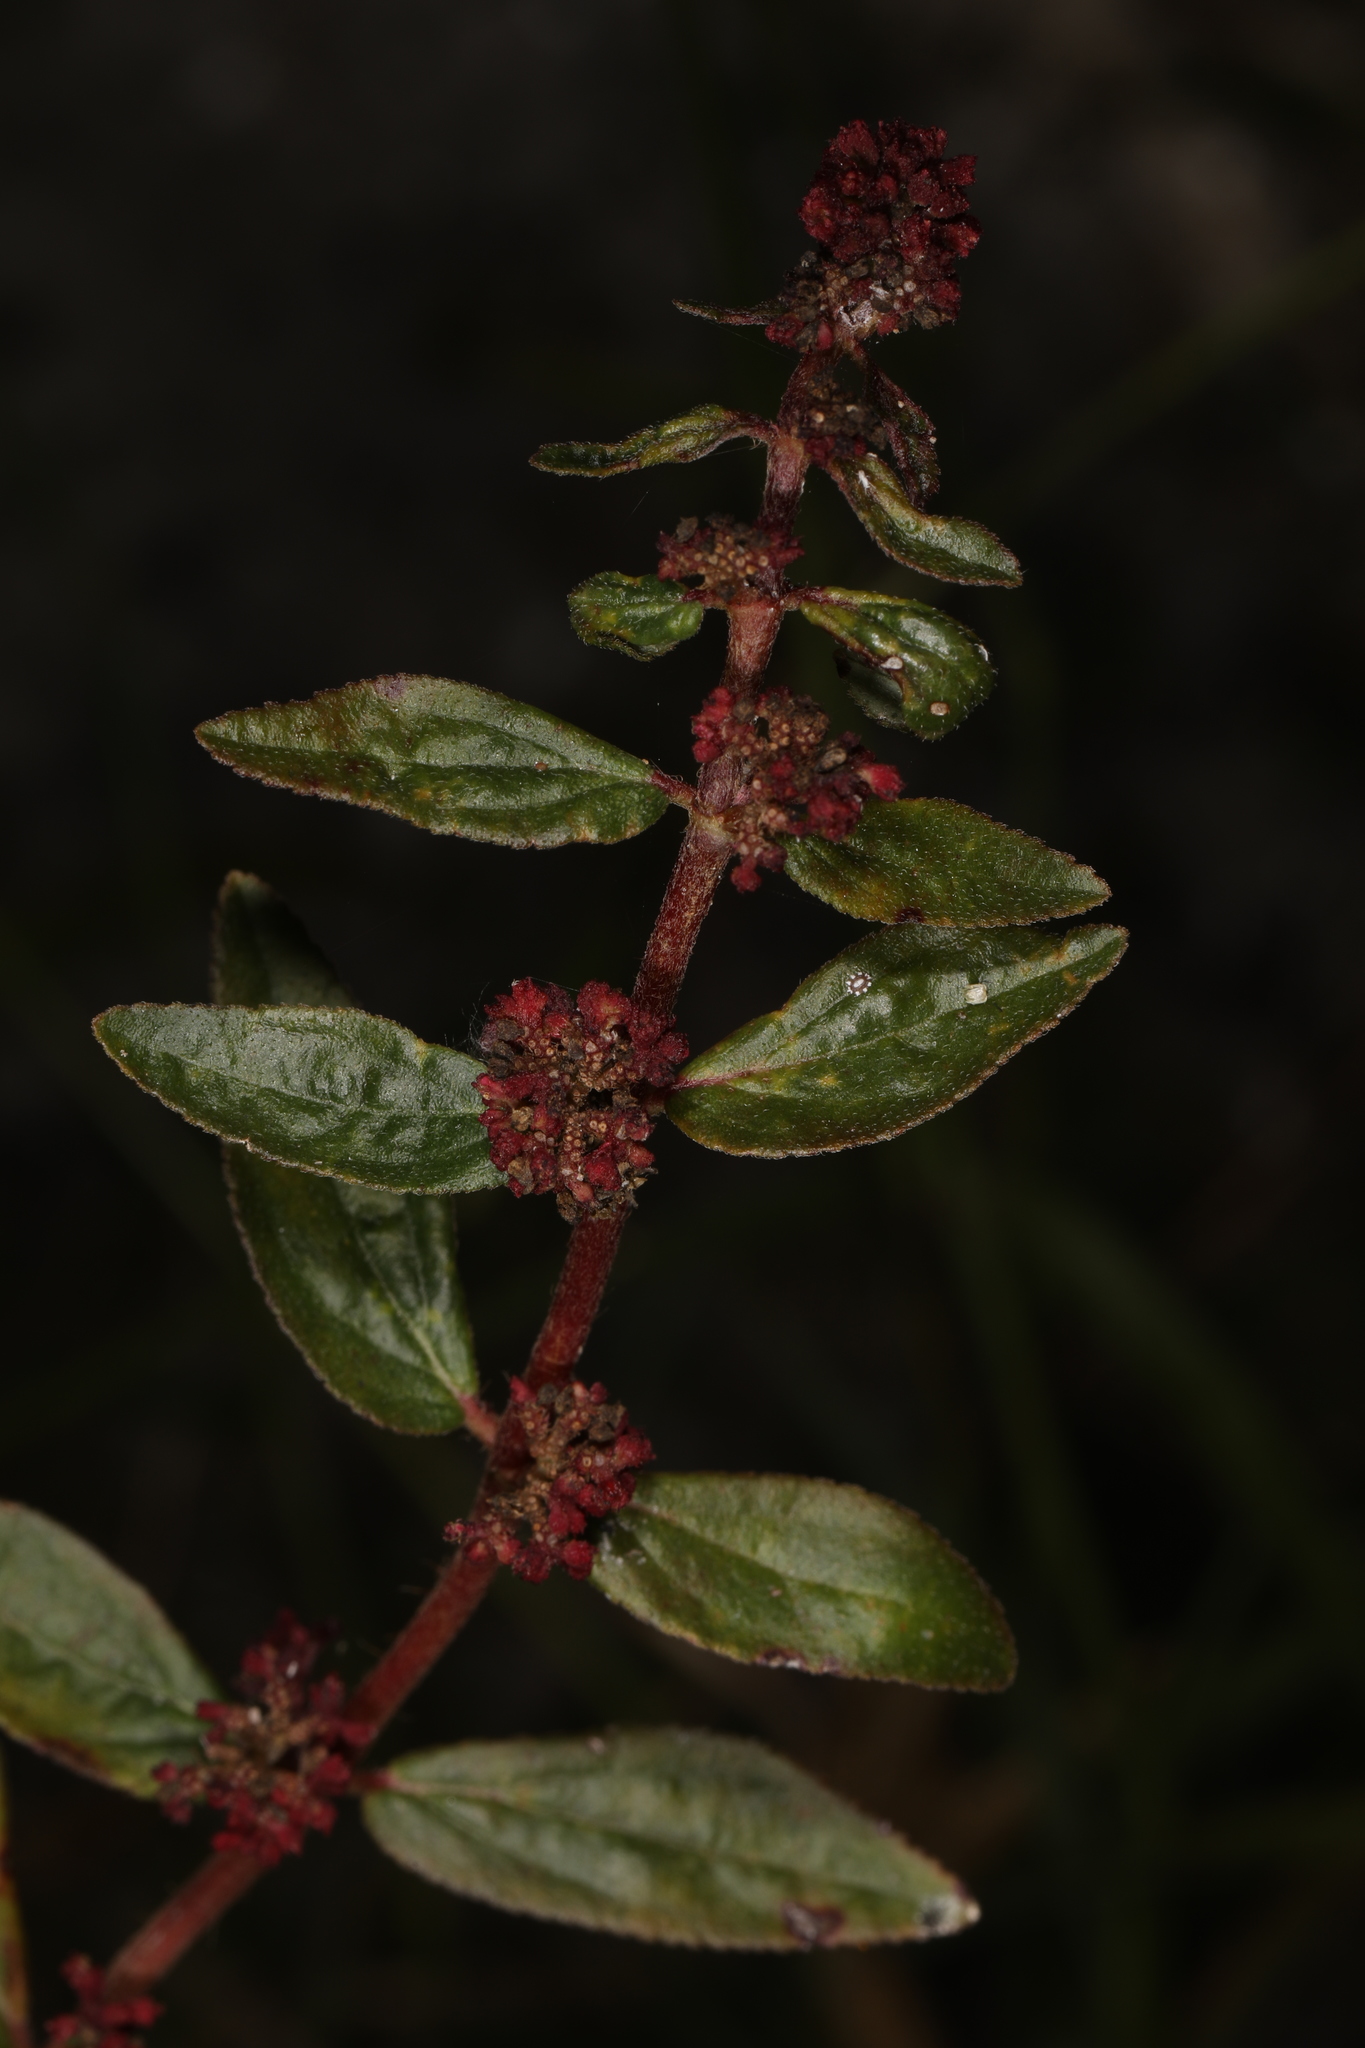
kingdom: Plantae
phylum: Tracheophyta
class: Magnoliopsida
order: Malpighiales
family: Euphorbiaceae
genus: Euphorbia
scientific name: Euphorbia hirta
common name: Pillpod sandmat
